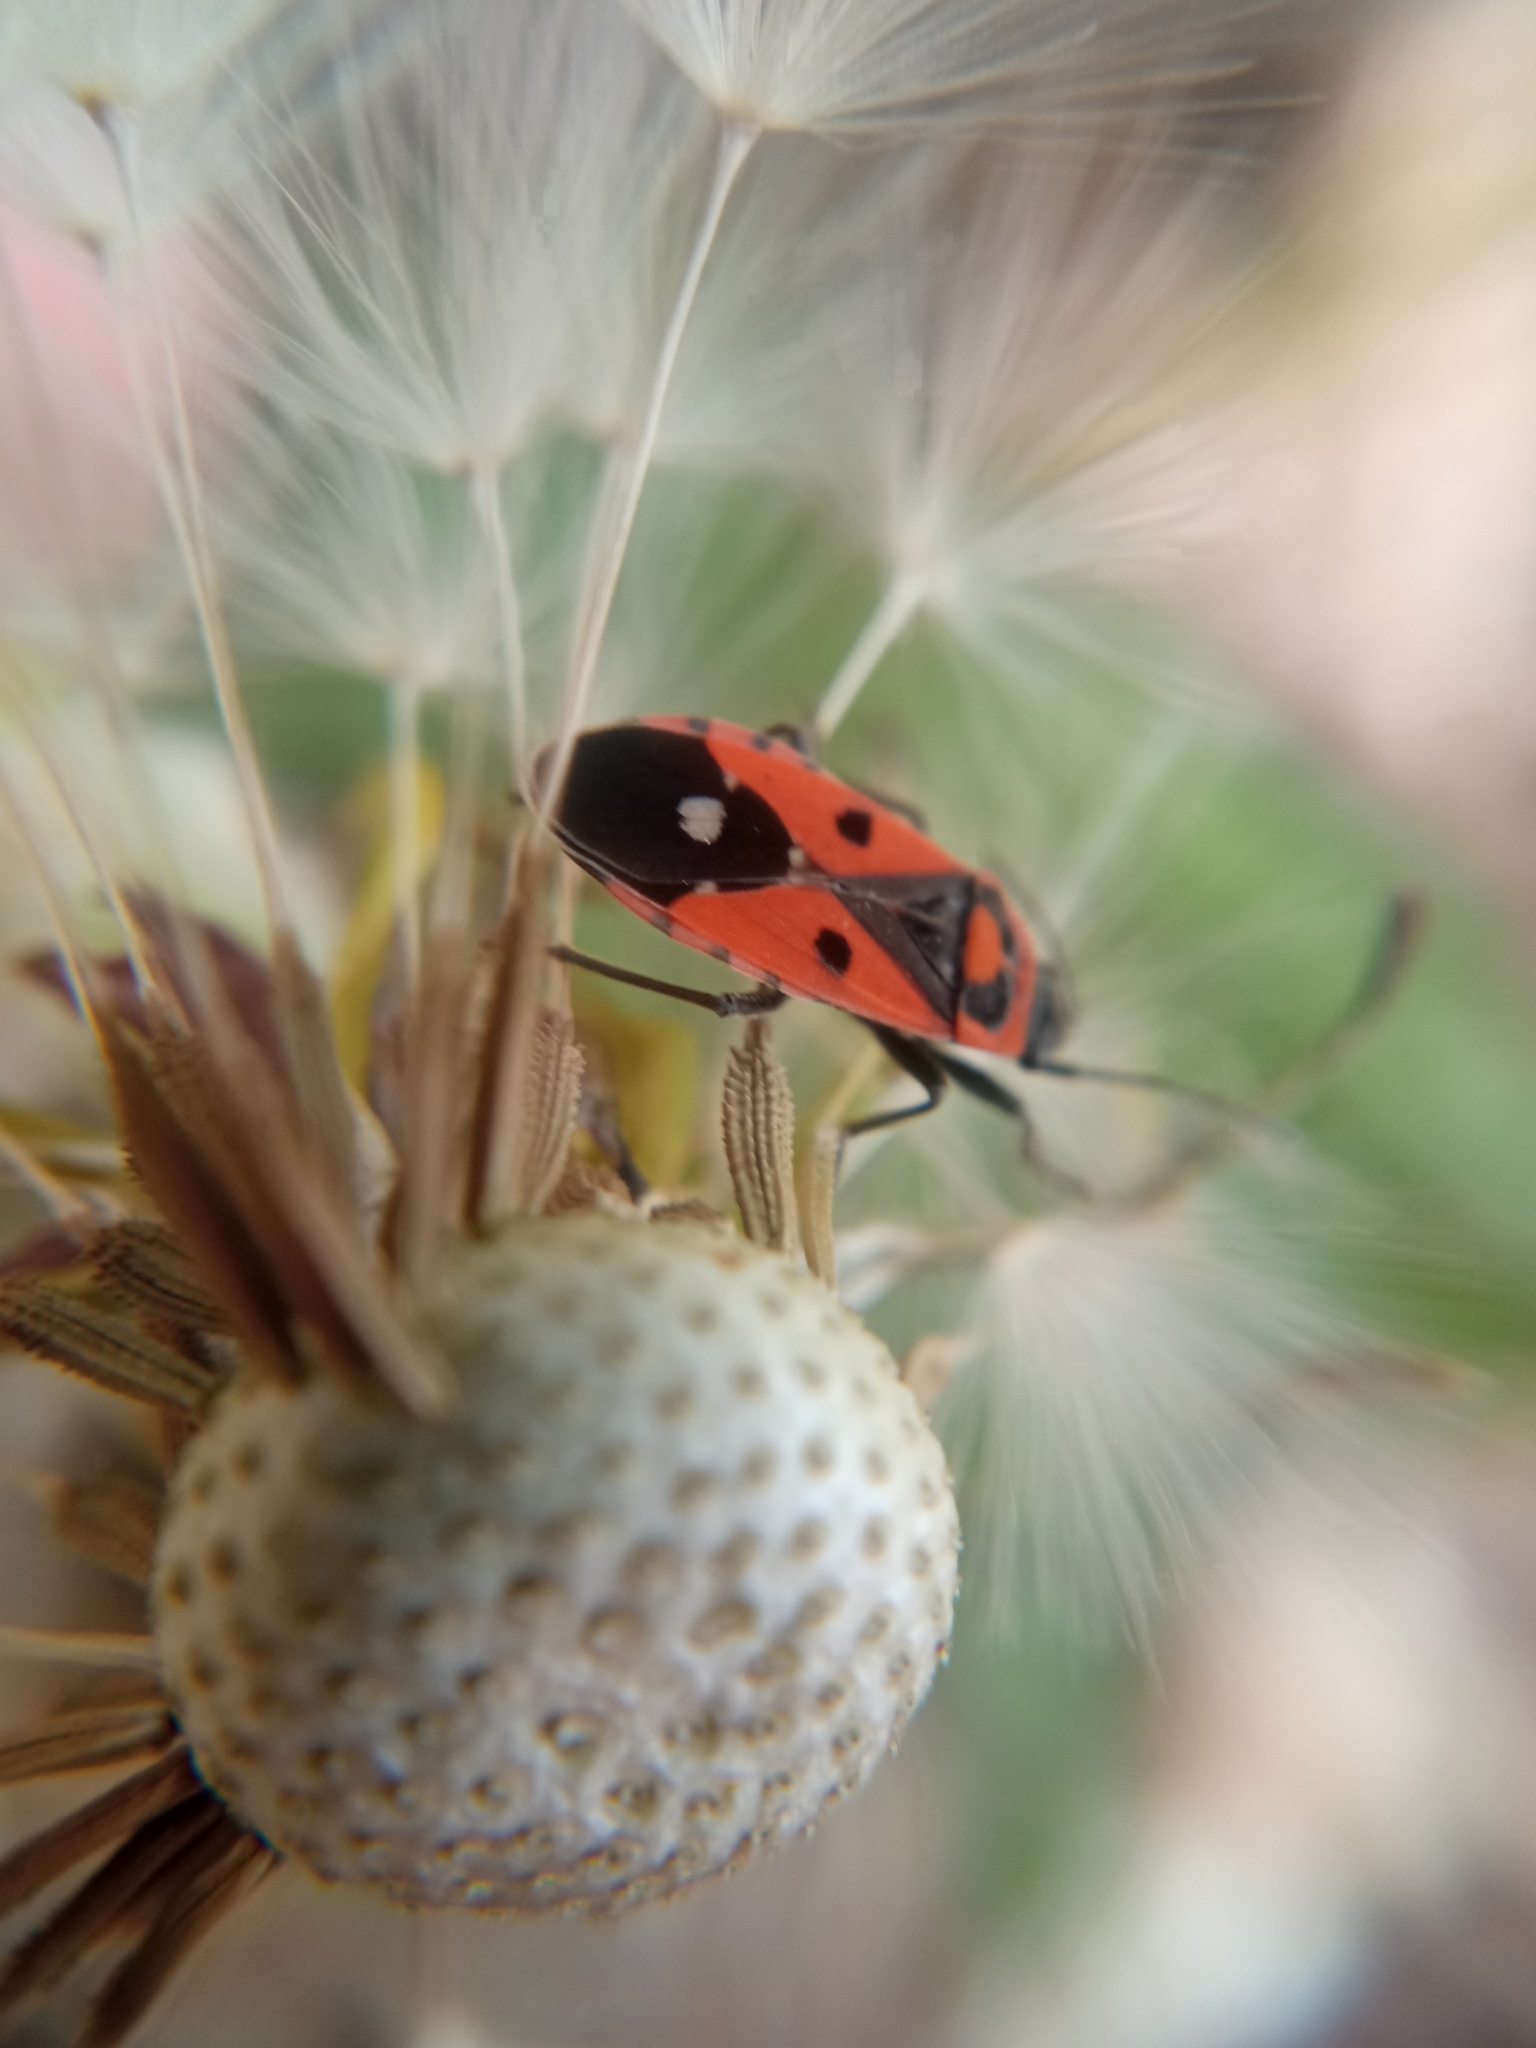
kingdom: Animalia
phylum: Arthropoda
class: Insecta
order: Hemiptera
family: Lygaeidae
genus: Melanocoryphus
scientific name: Melanocoryphus albomaculatus
